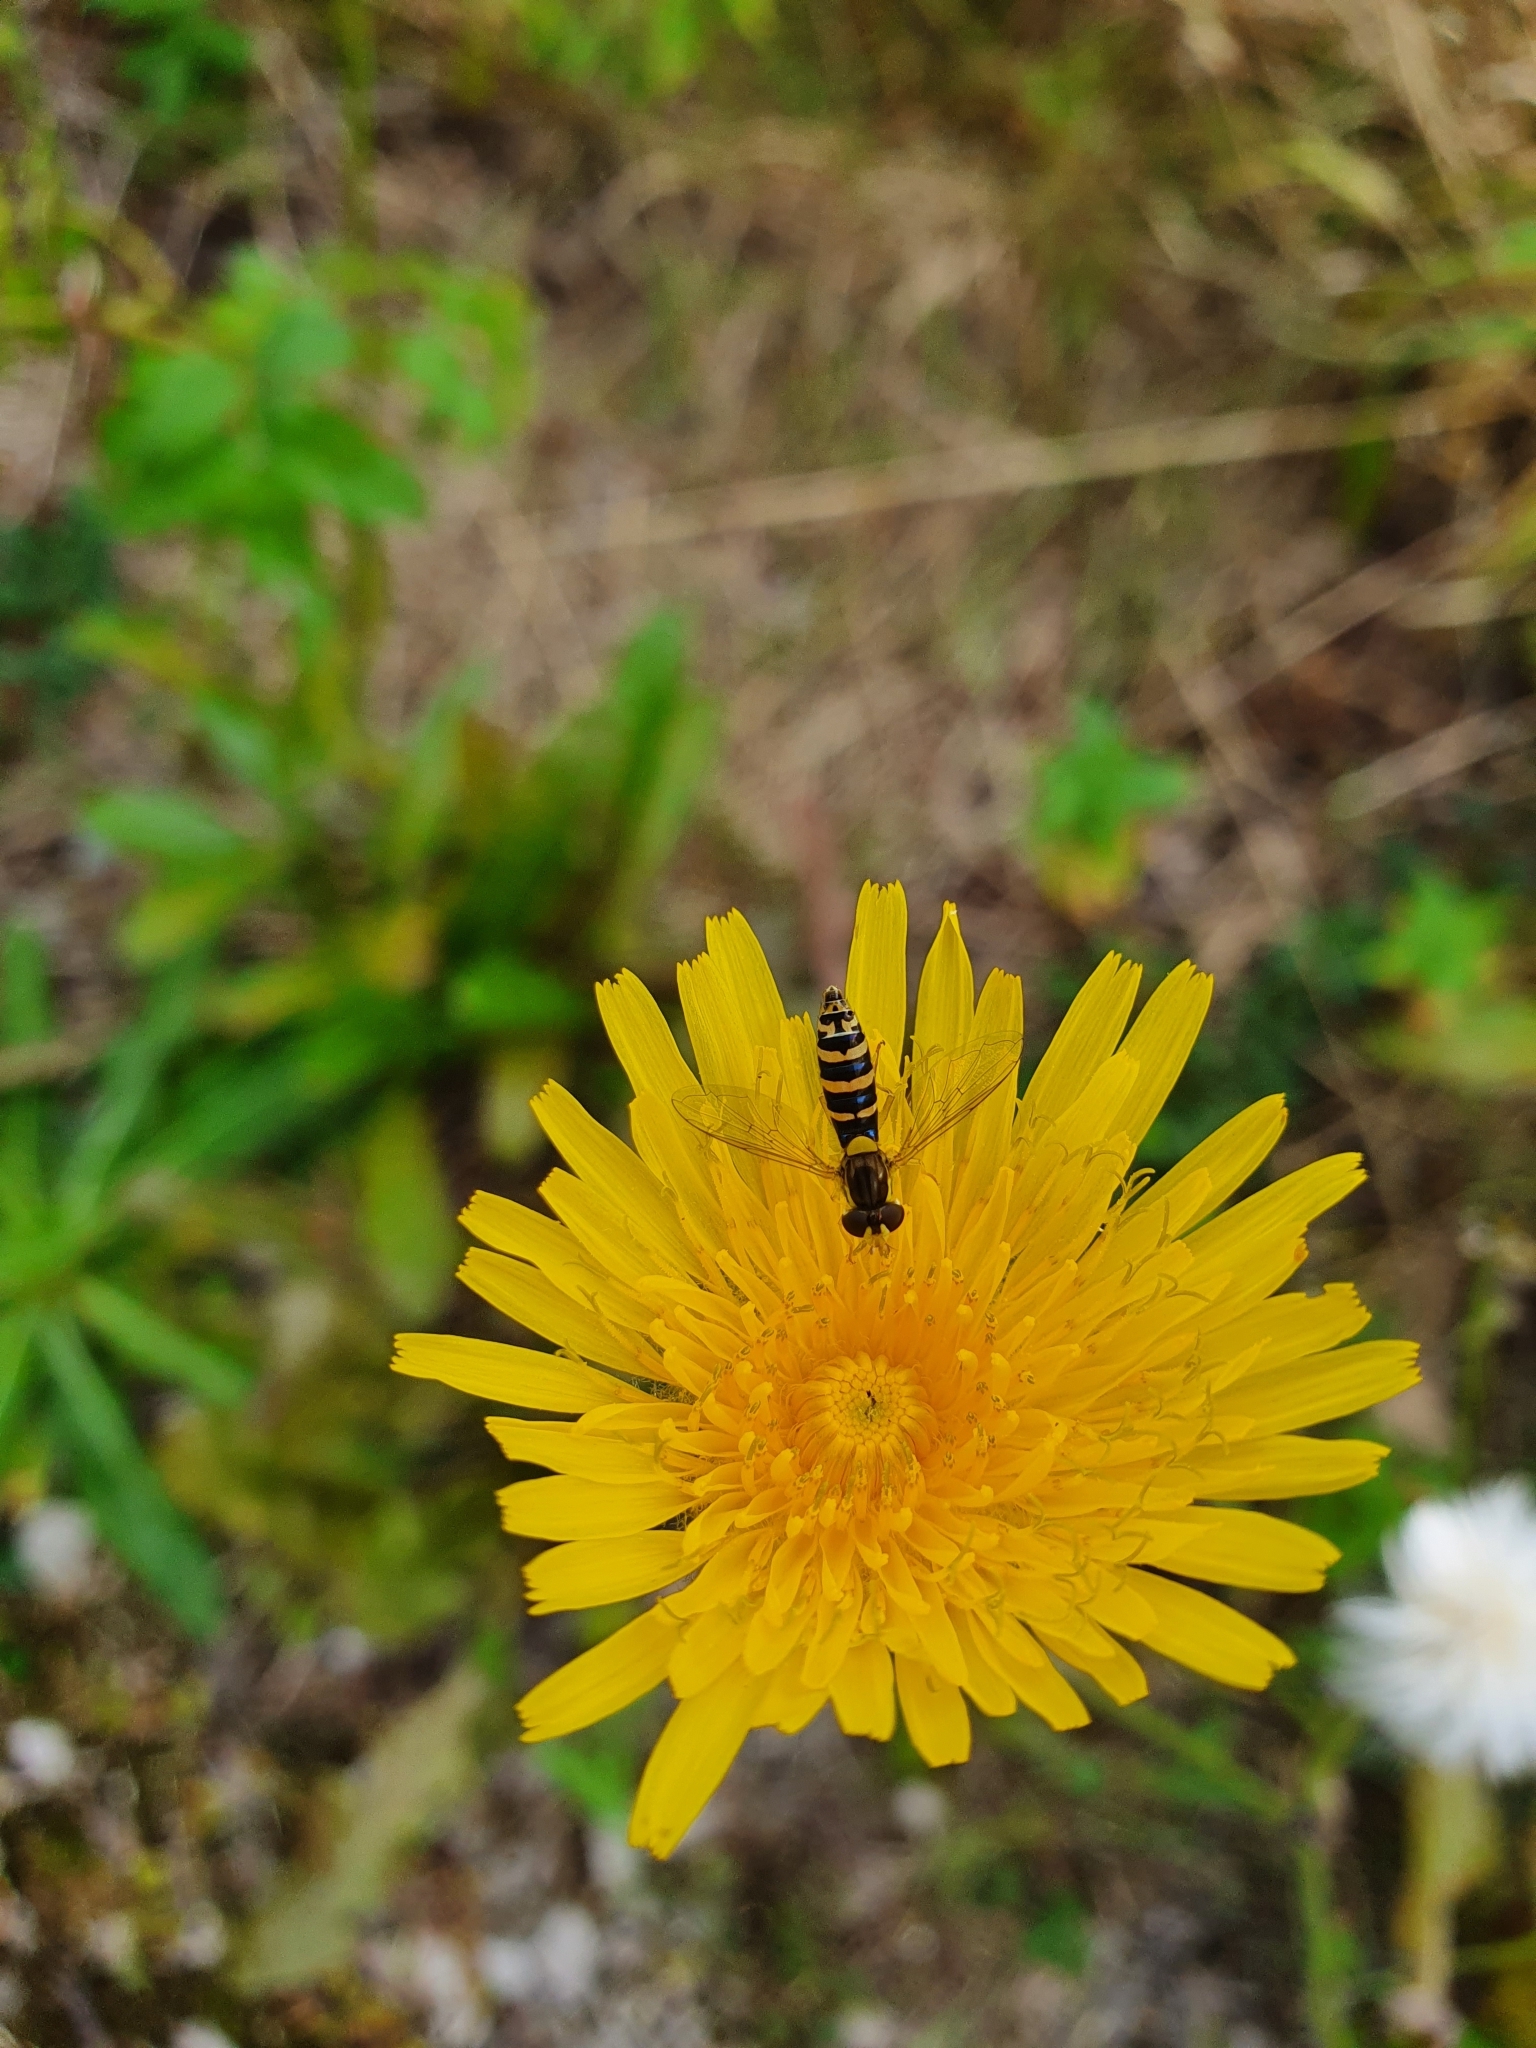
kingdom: Animalia
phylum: Arthropoda
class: Insecta
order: Diptera
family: Syrphidae
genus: Sphaerophoria
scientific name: Sphaerophoria
